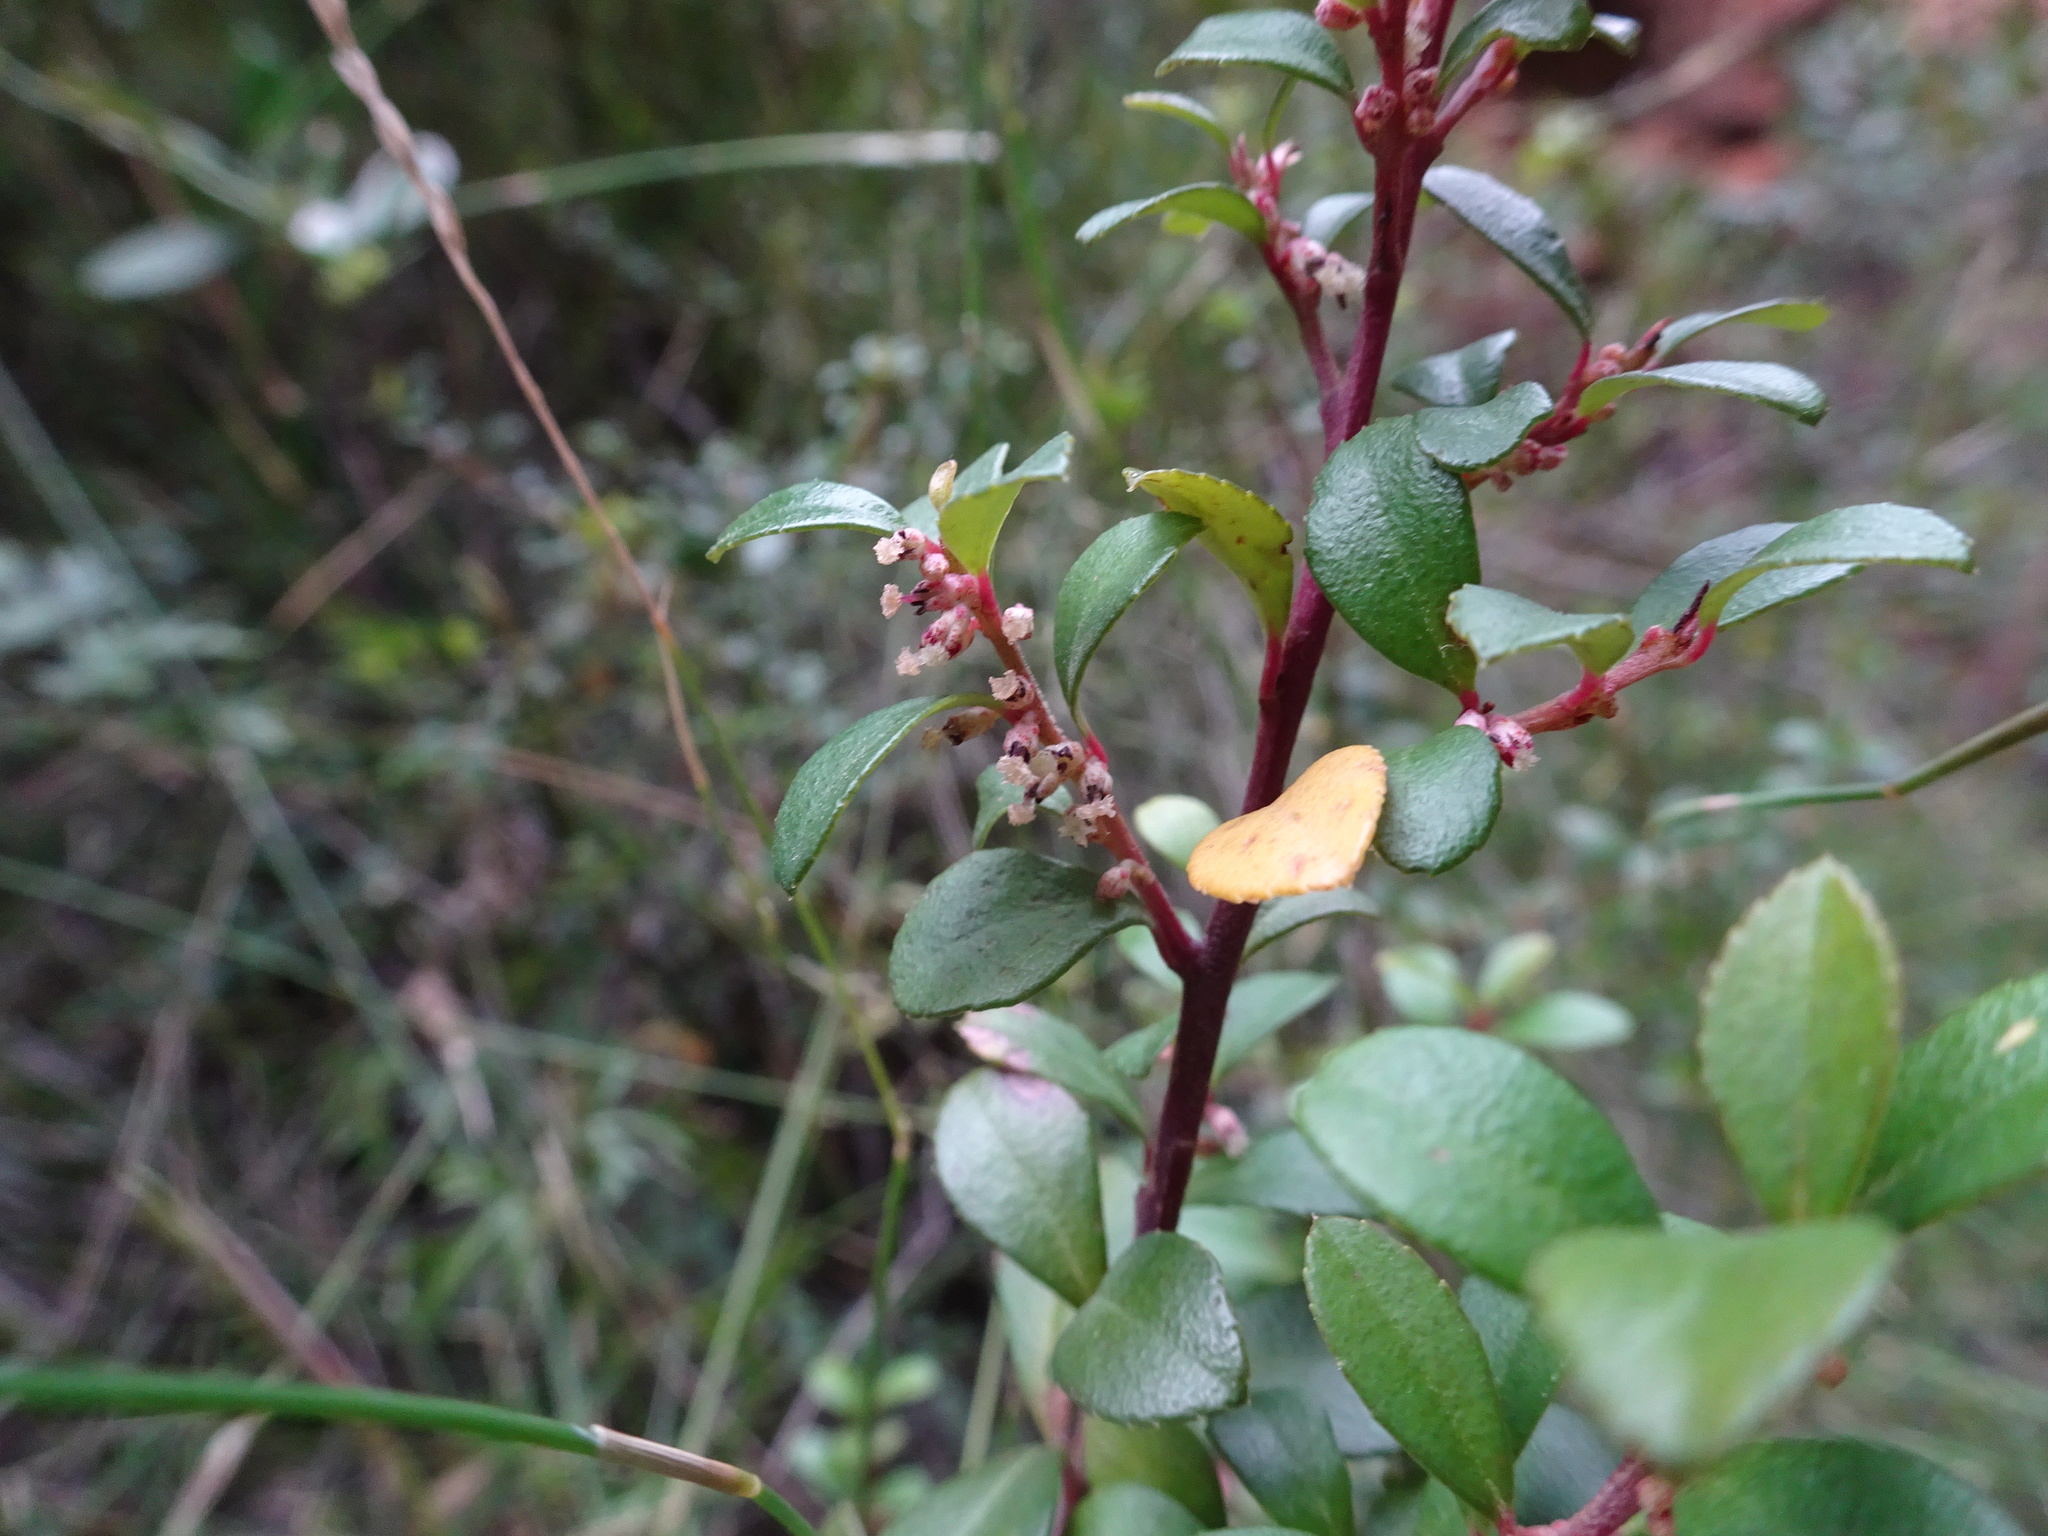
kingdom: Plantae
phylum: Tracheophyta
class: Magnoliopsida
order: Ericales
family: Primulaceae
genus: Myrsine
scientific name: Myrsine africana
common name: African-boxwood
